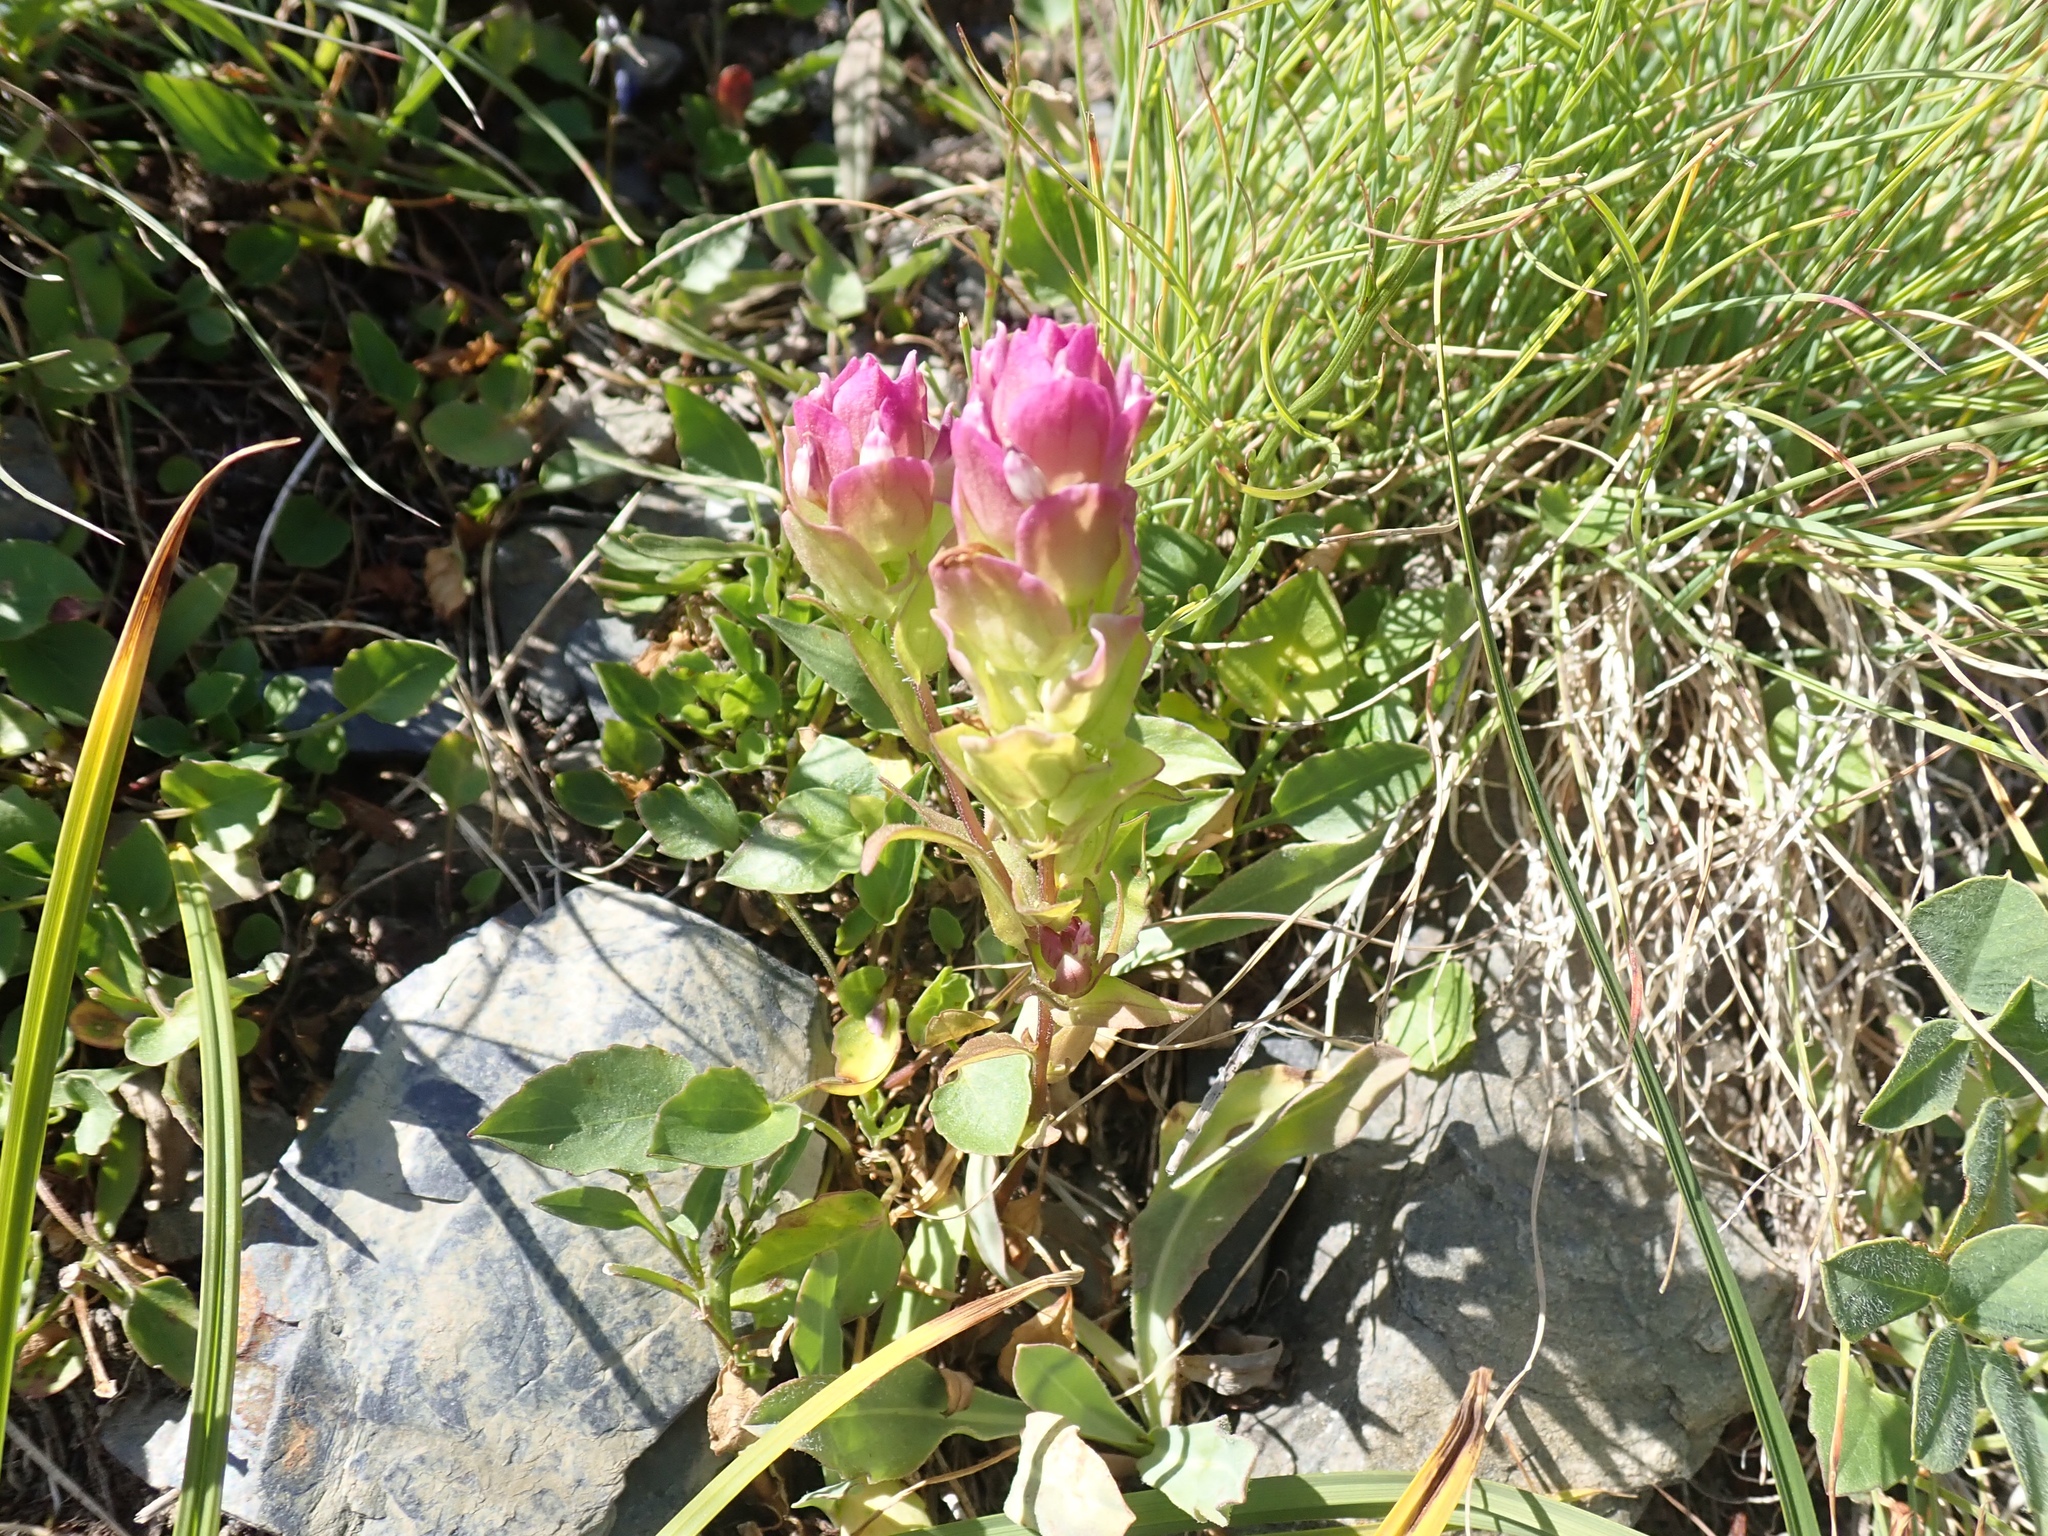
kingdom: Plantae
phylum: Tracheophyta
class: Magnoliopsida
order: Lamiales
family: Orobanchaceae
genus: Orthocarpus
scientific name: Orthocarpus imbricatus
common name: Mountain owl's-clover
